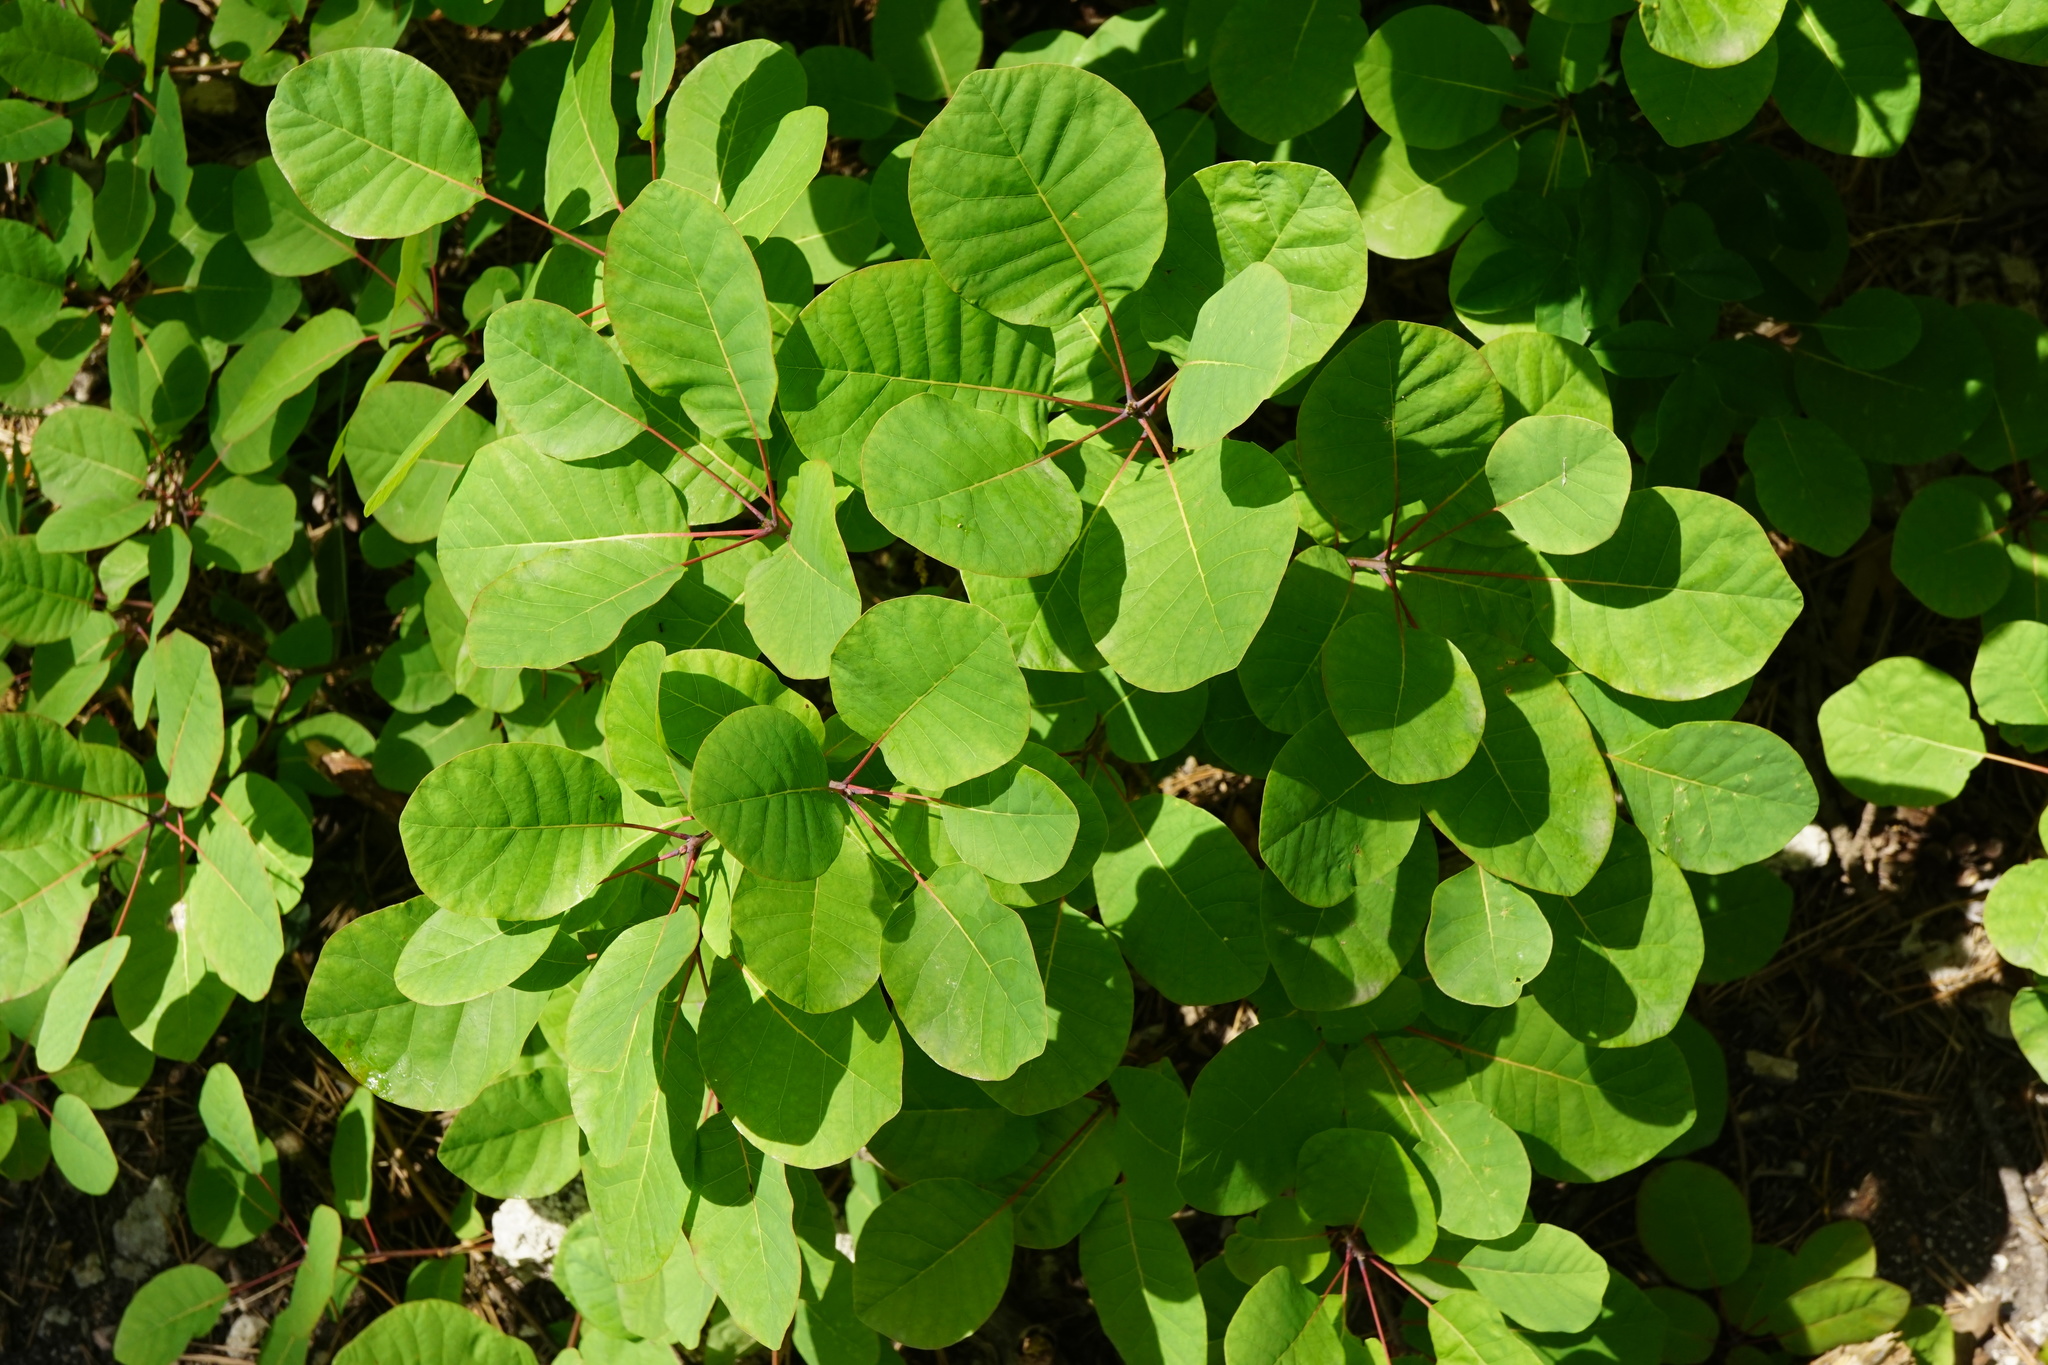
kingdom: Plantae
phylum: Tracheophyta
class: Magnoliopsida
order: Sapindales
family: Anacardiaceae
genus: Cotinus
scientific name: Cotinus coggygria
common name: Smoke-tree
